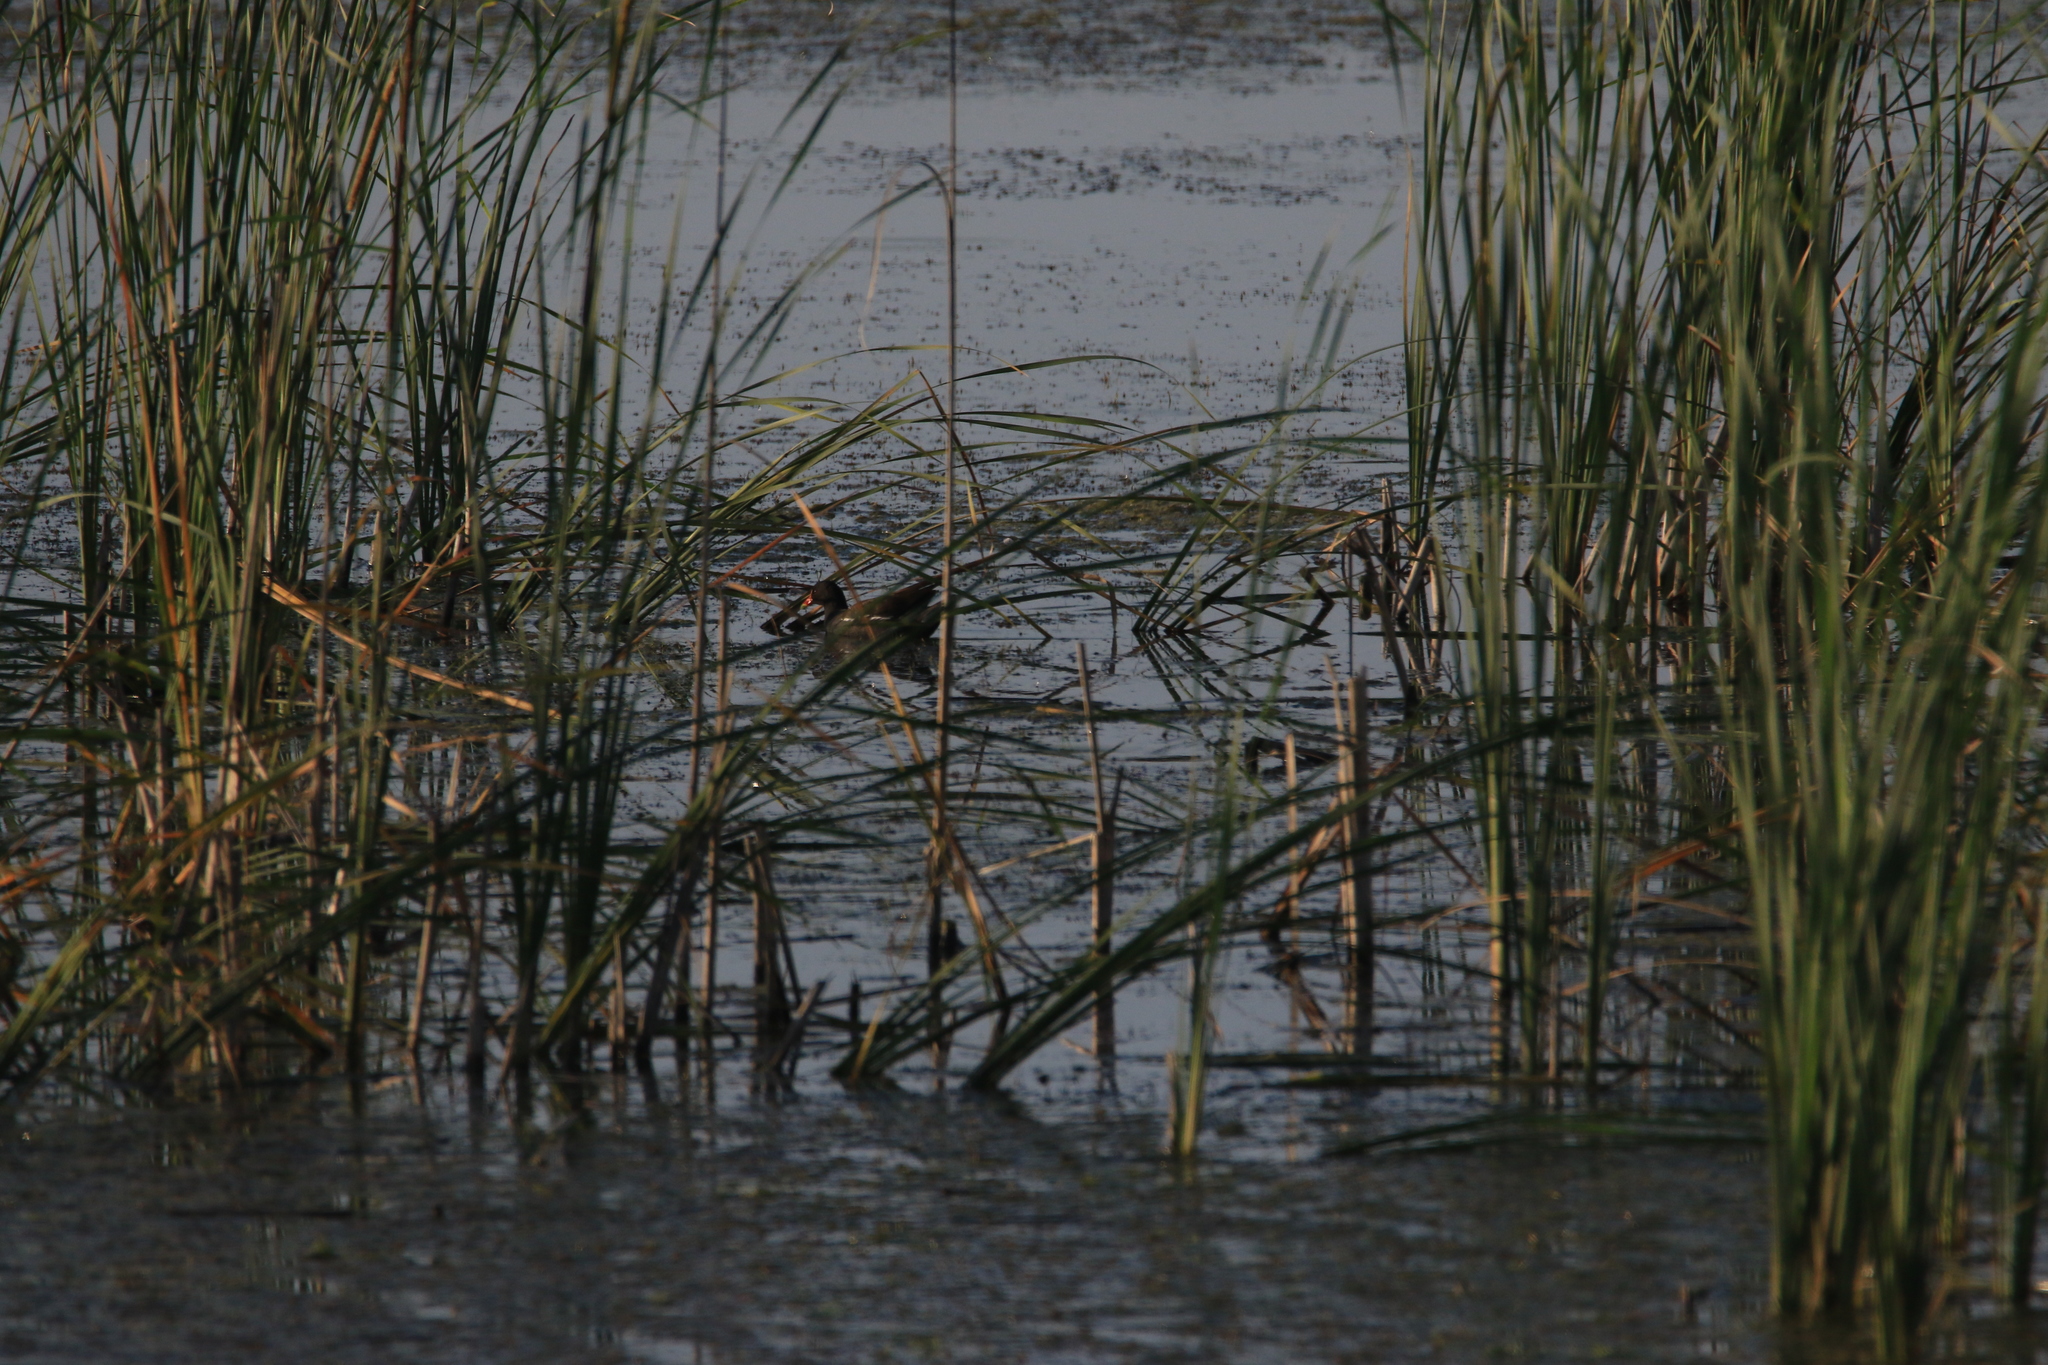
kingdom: Animalia
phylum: Chordata
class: Aves
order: Gruiformes
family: Rallidae
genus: Gallinula
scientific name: Gallinula chloropus
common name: Common moorhen
